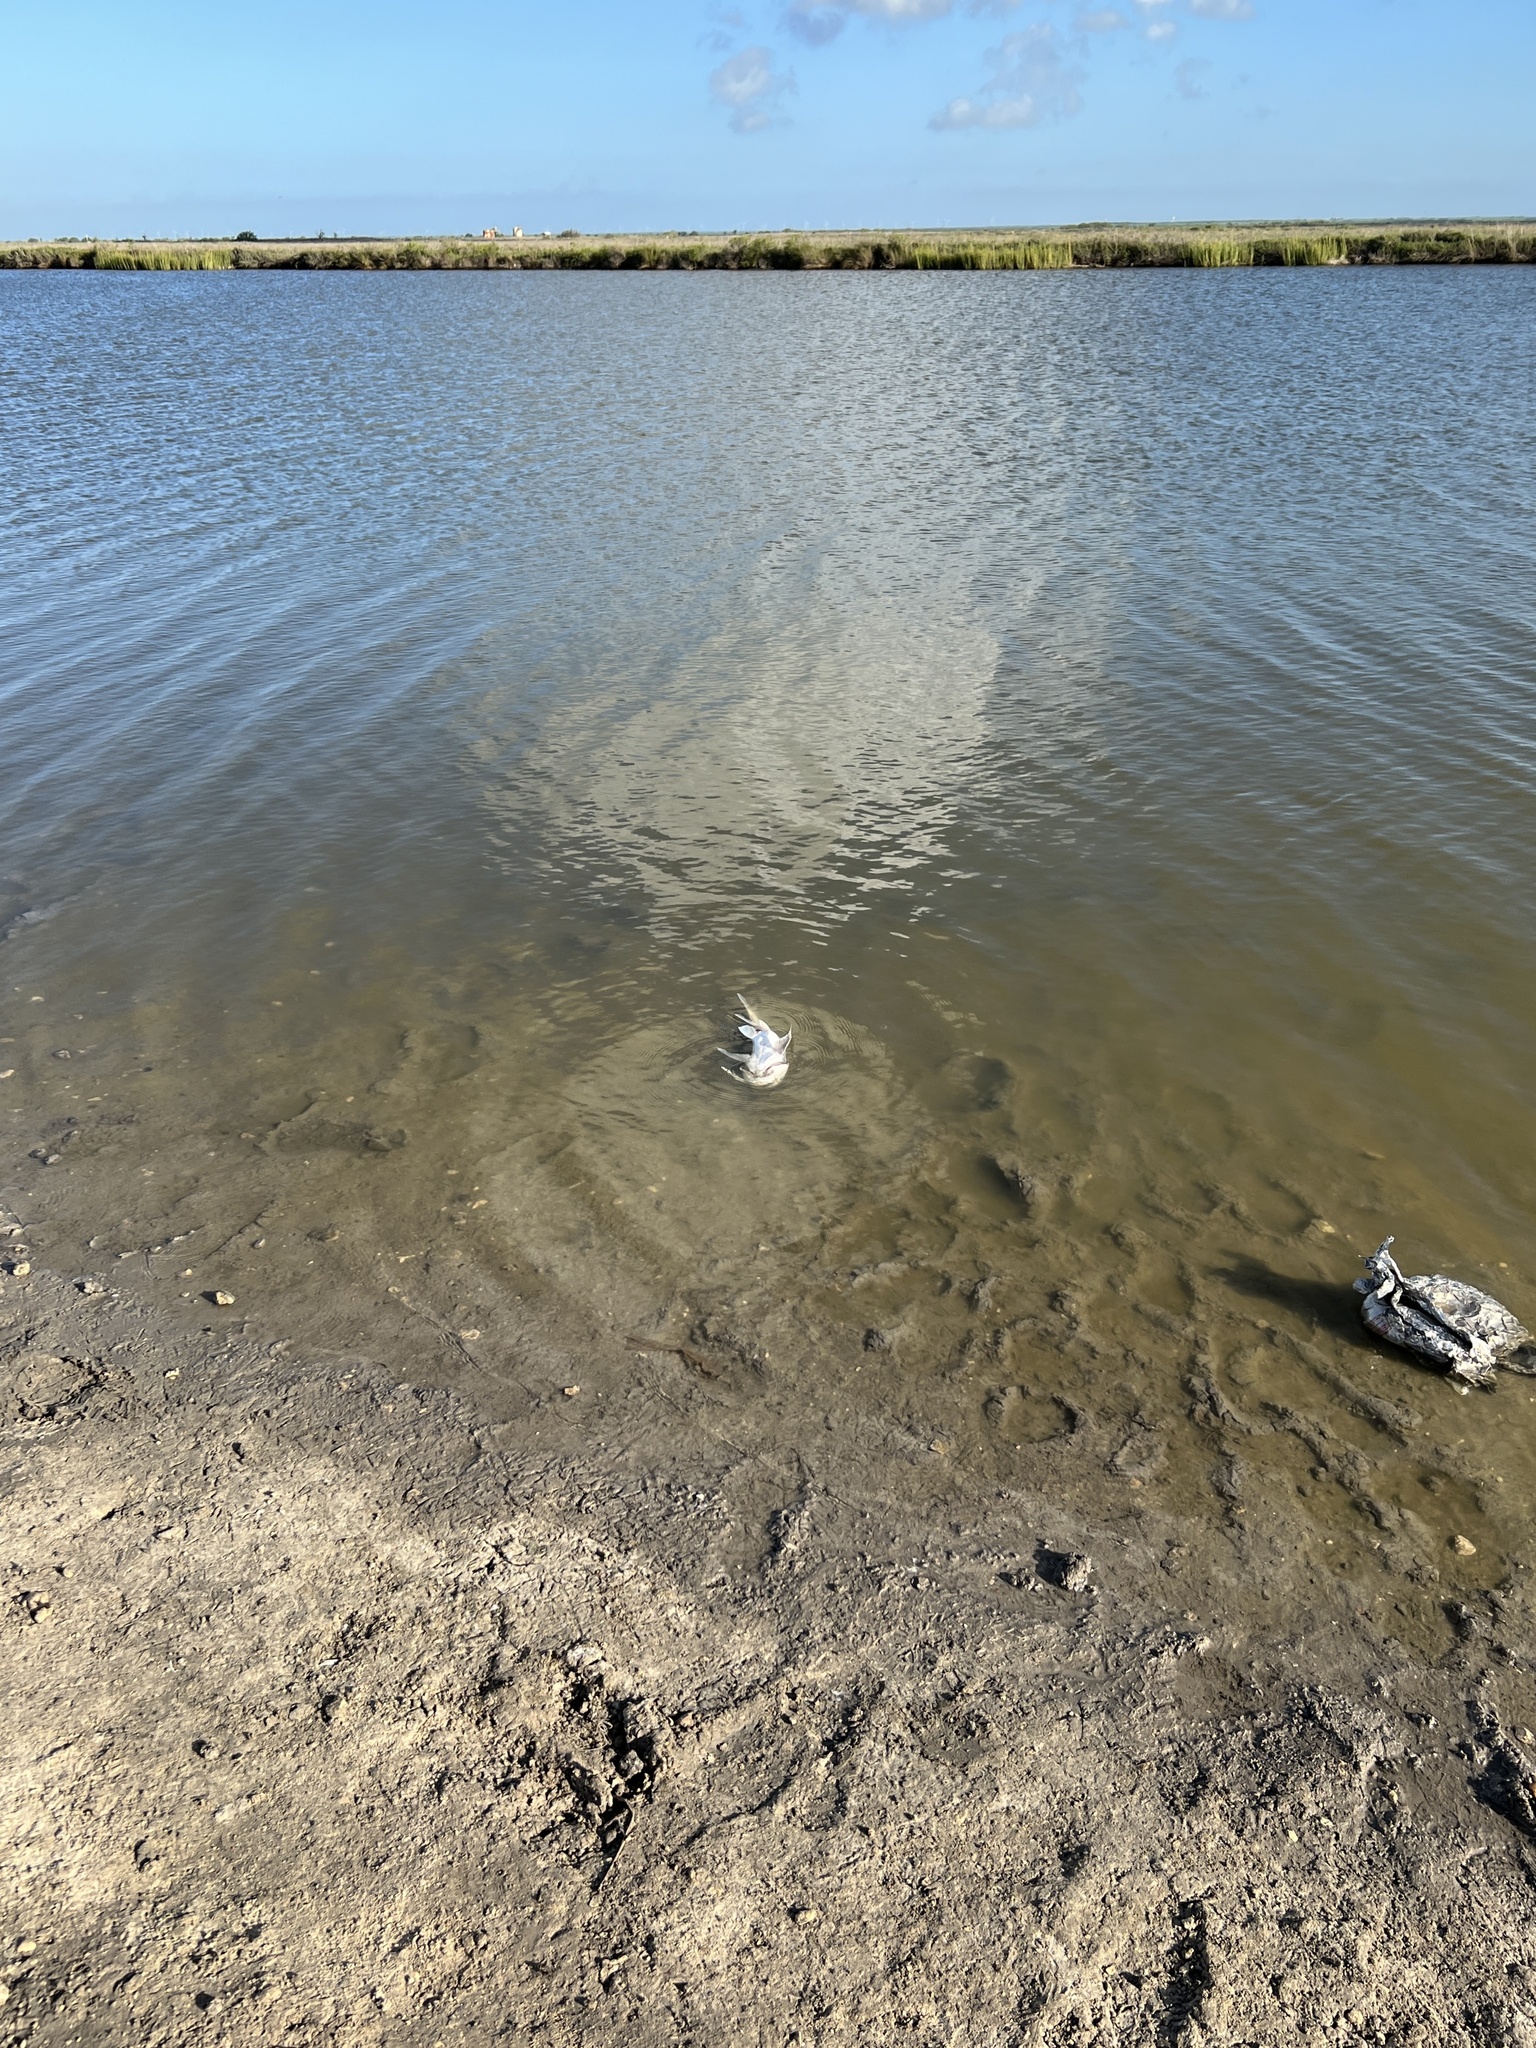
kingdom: Animalia
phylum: Chordata
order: Siluriformes
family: Ariidae
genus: Bagre
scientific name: Bagre marinus
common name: Gafftopsail sea catfish
